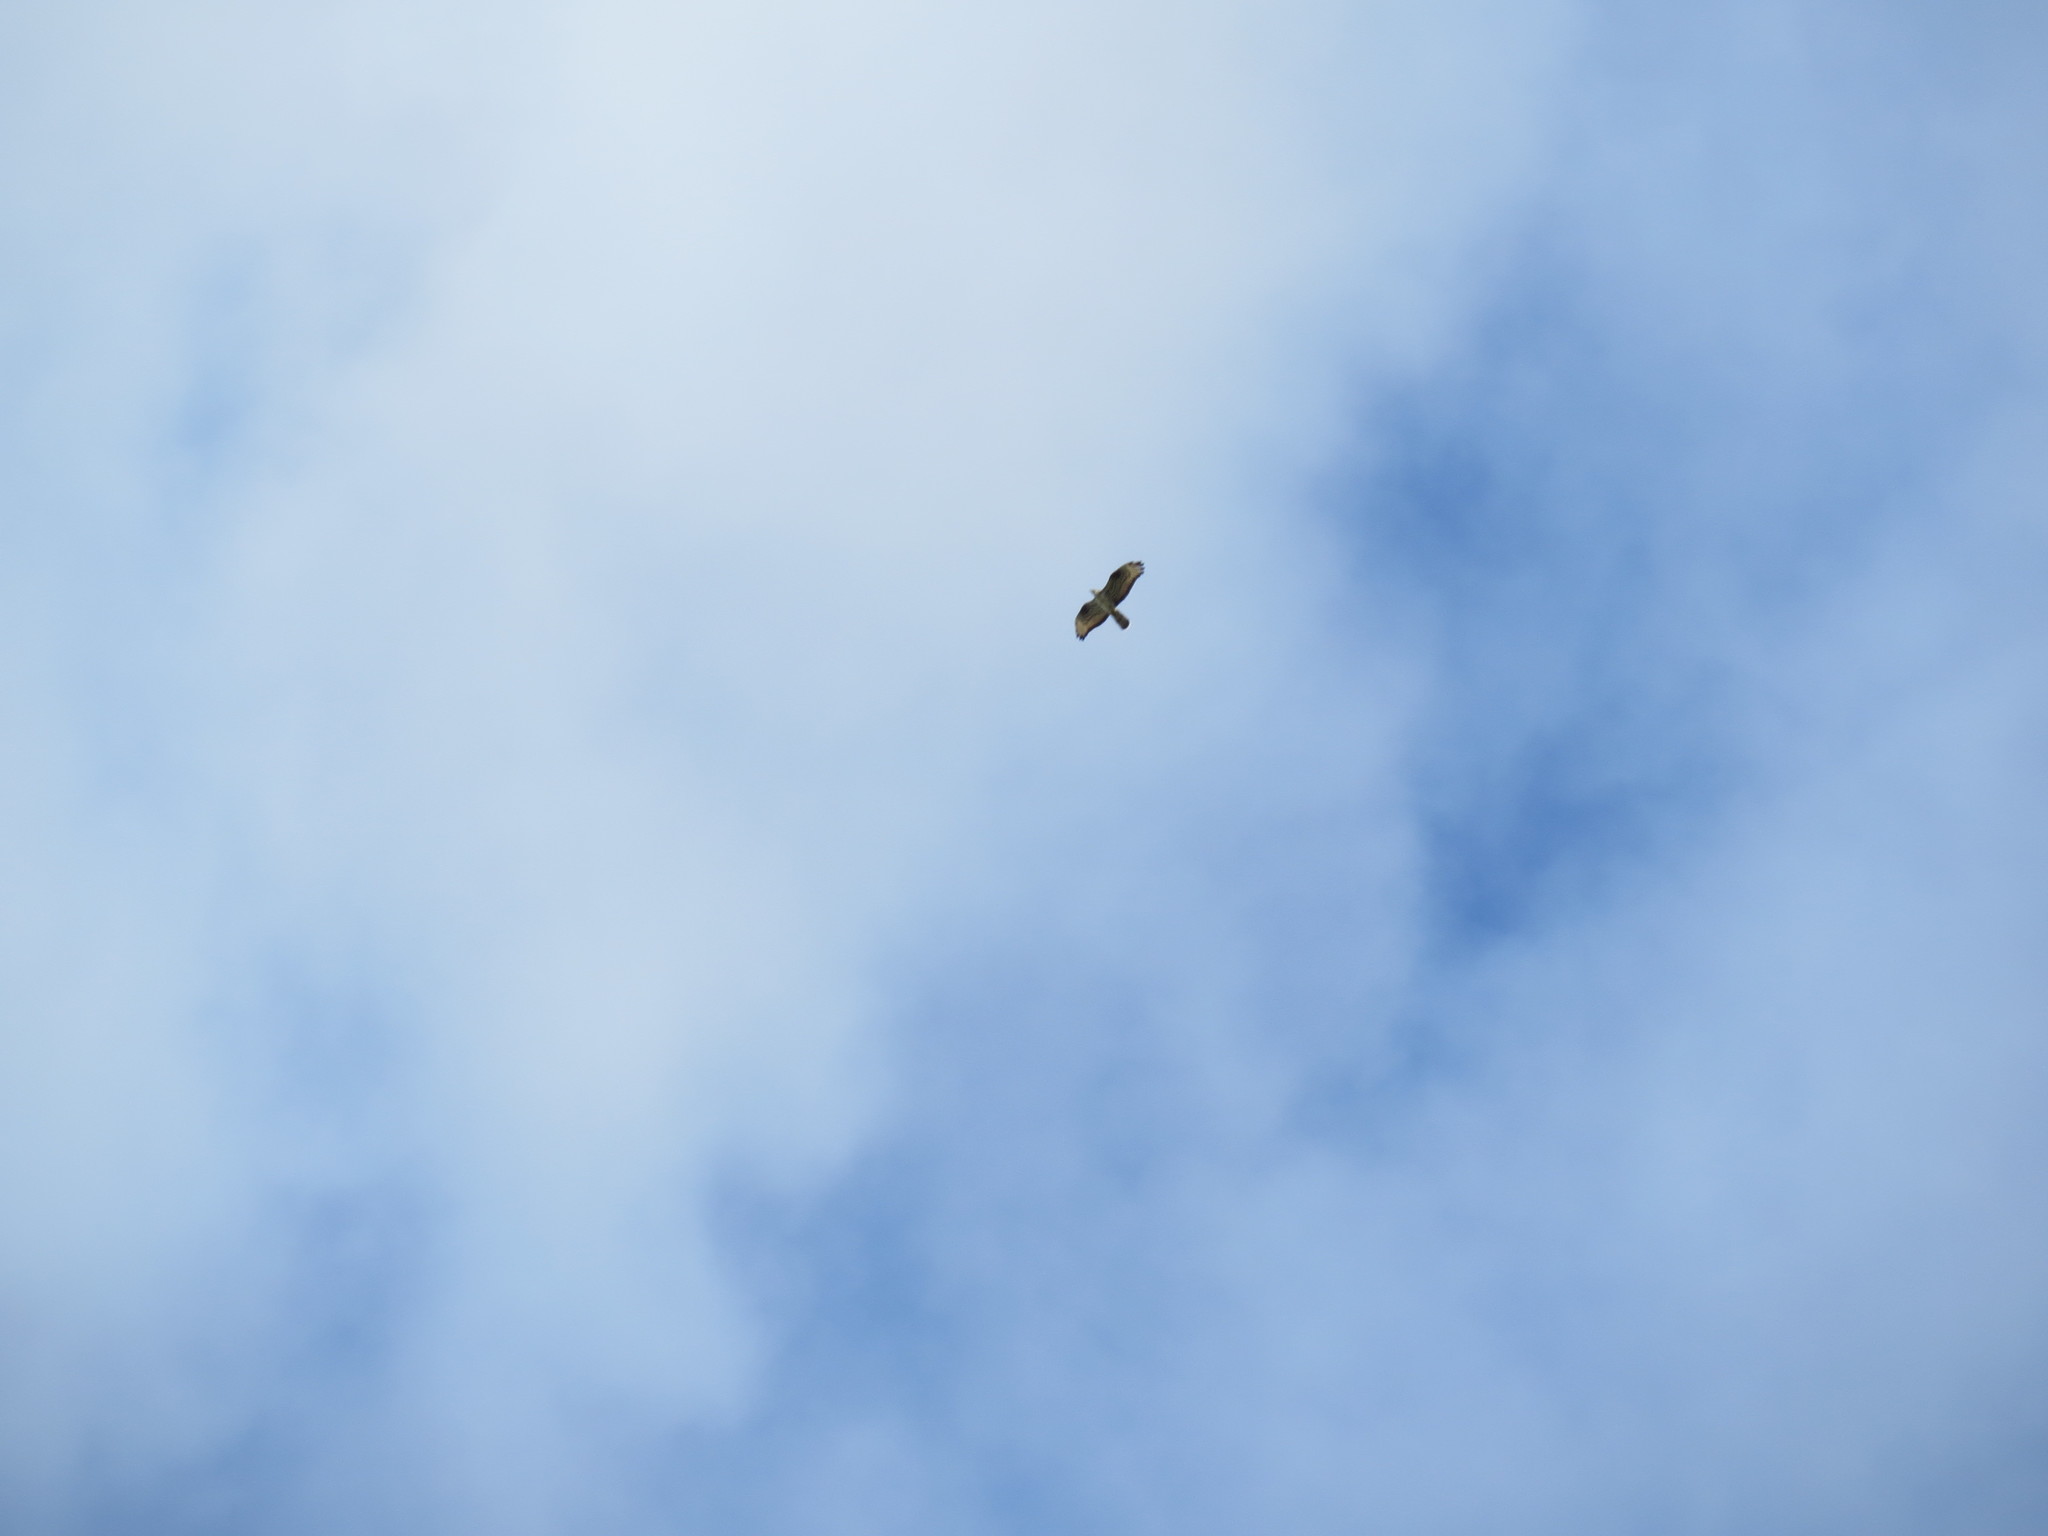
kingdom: Animalia
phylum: Chordata
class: Aves
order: Accipitriformes
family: Accipitridae
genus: Pernis
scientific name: Pernis apivorus
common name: European honey buzzard
